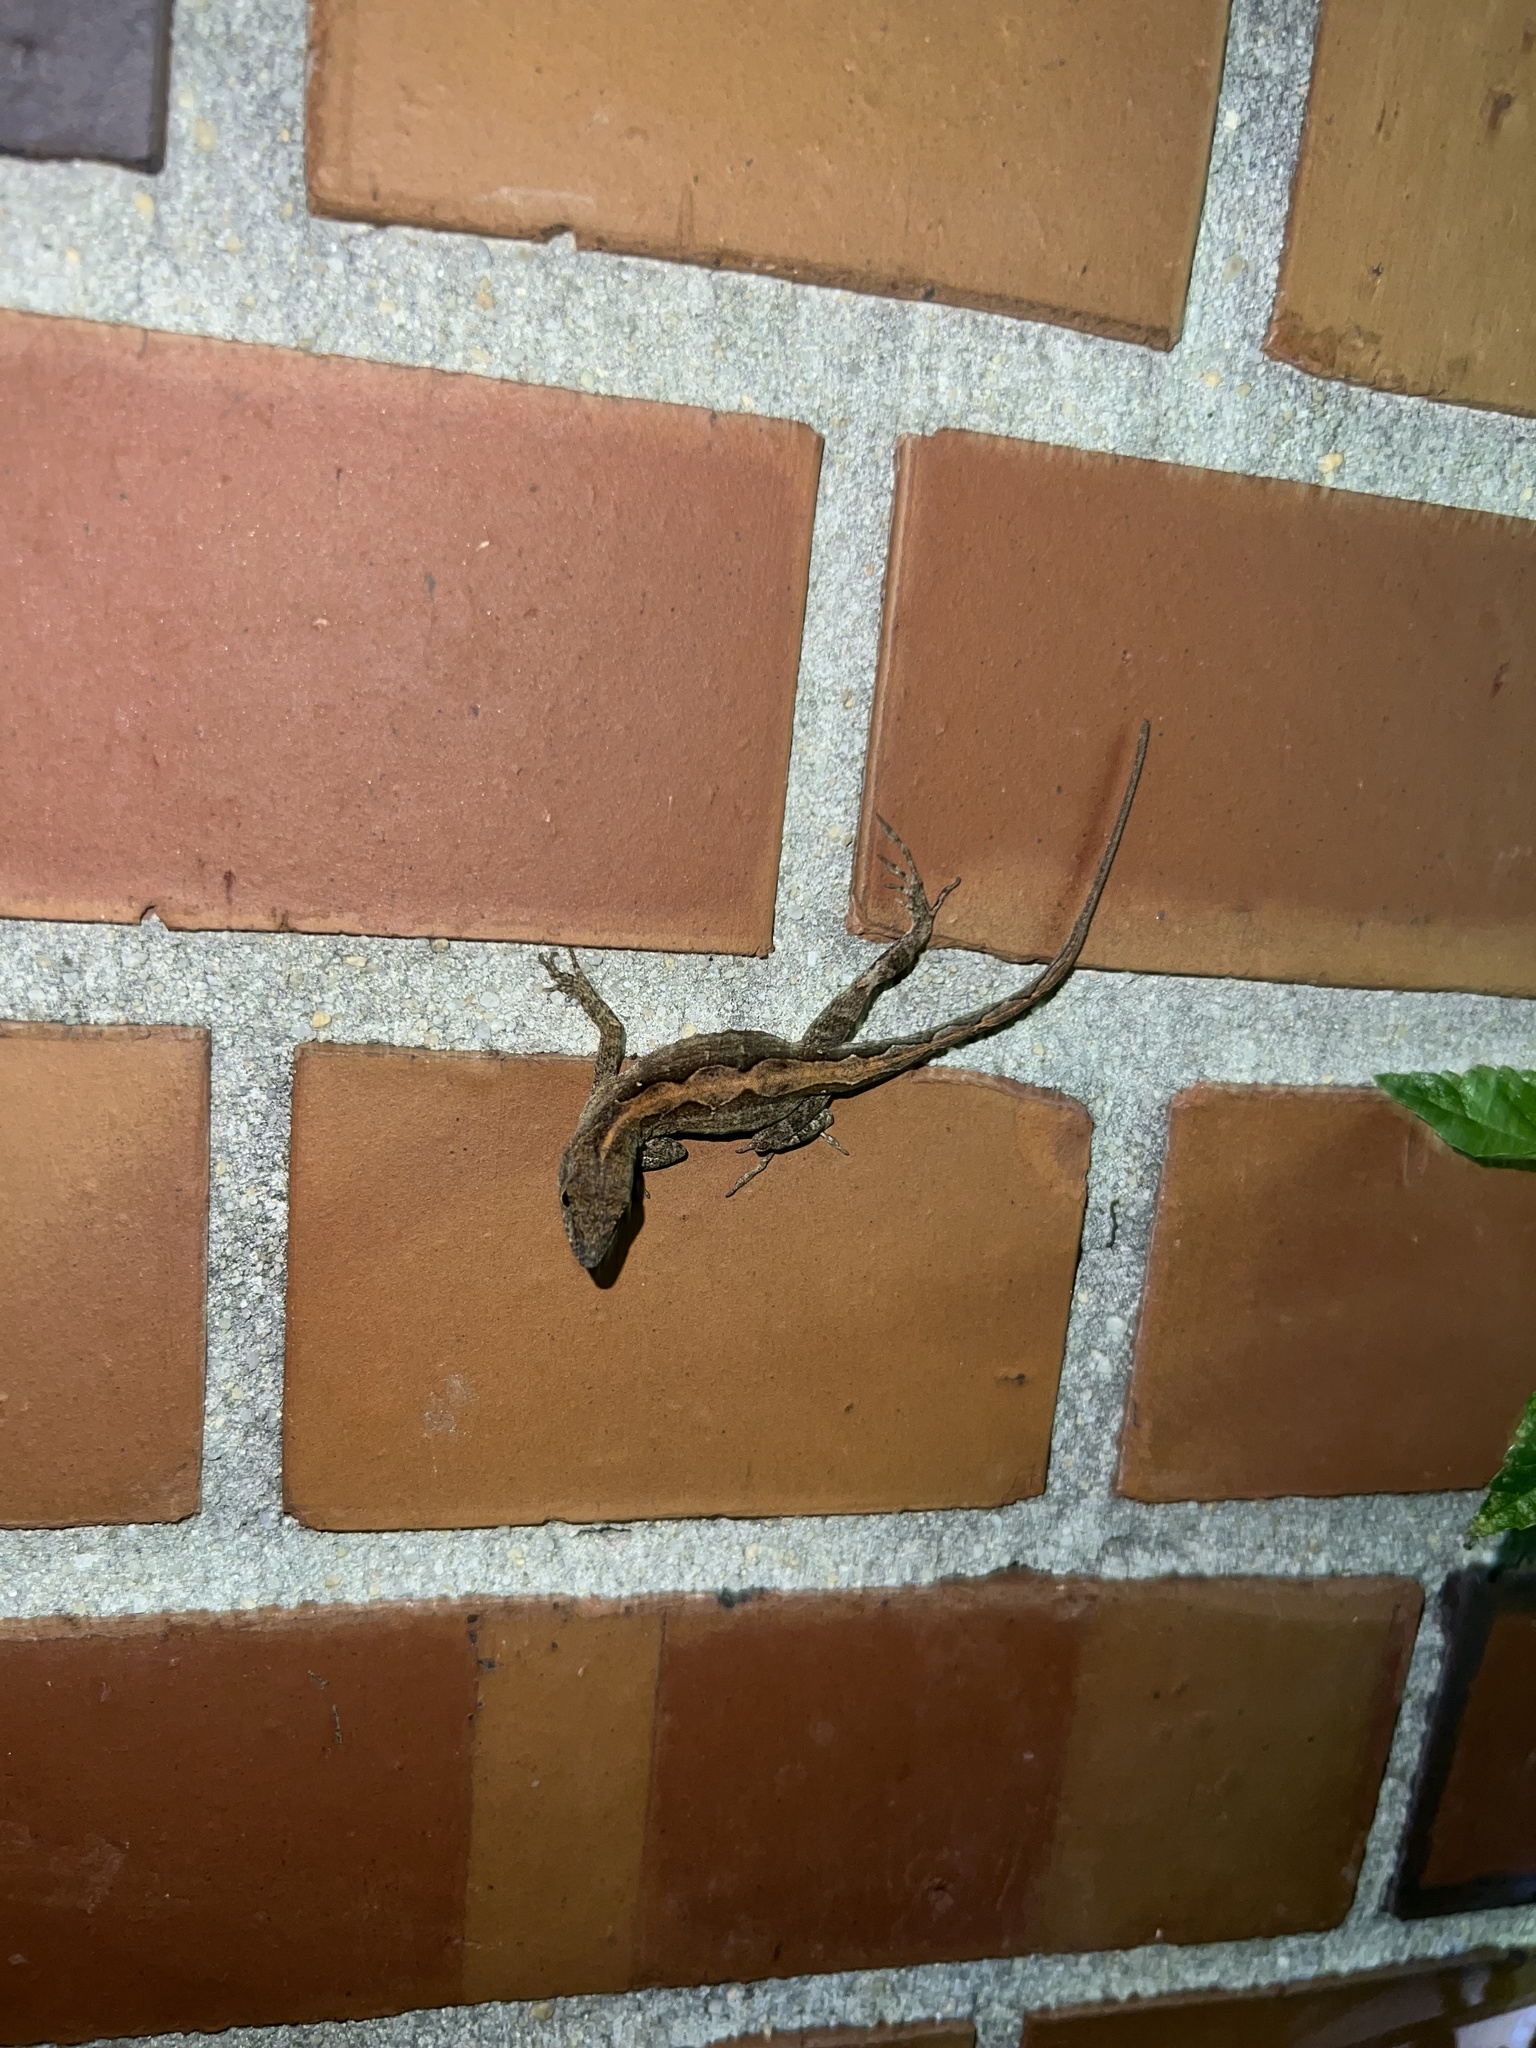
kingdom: Animalia
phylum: Chordata
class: Squamata
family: Dactyloidae
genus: Anolis
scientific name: Anolis sagrei
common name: Brown anole
